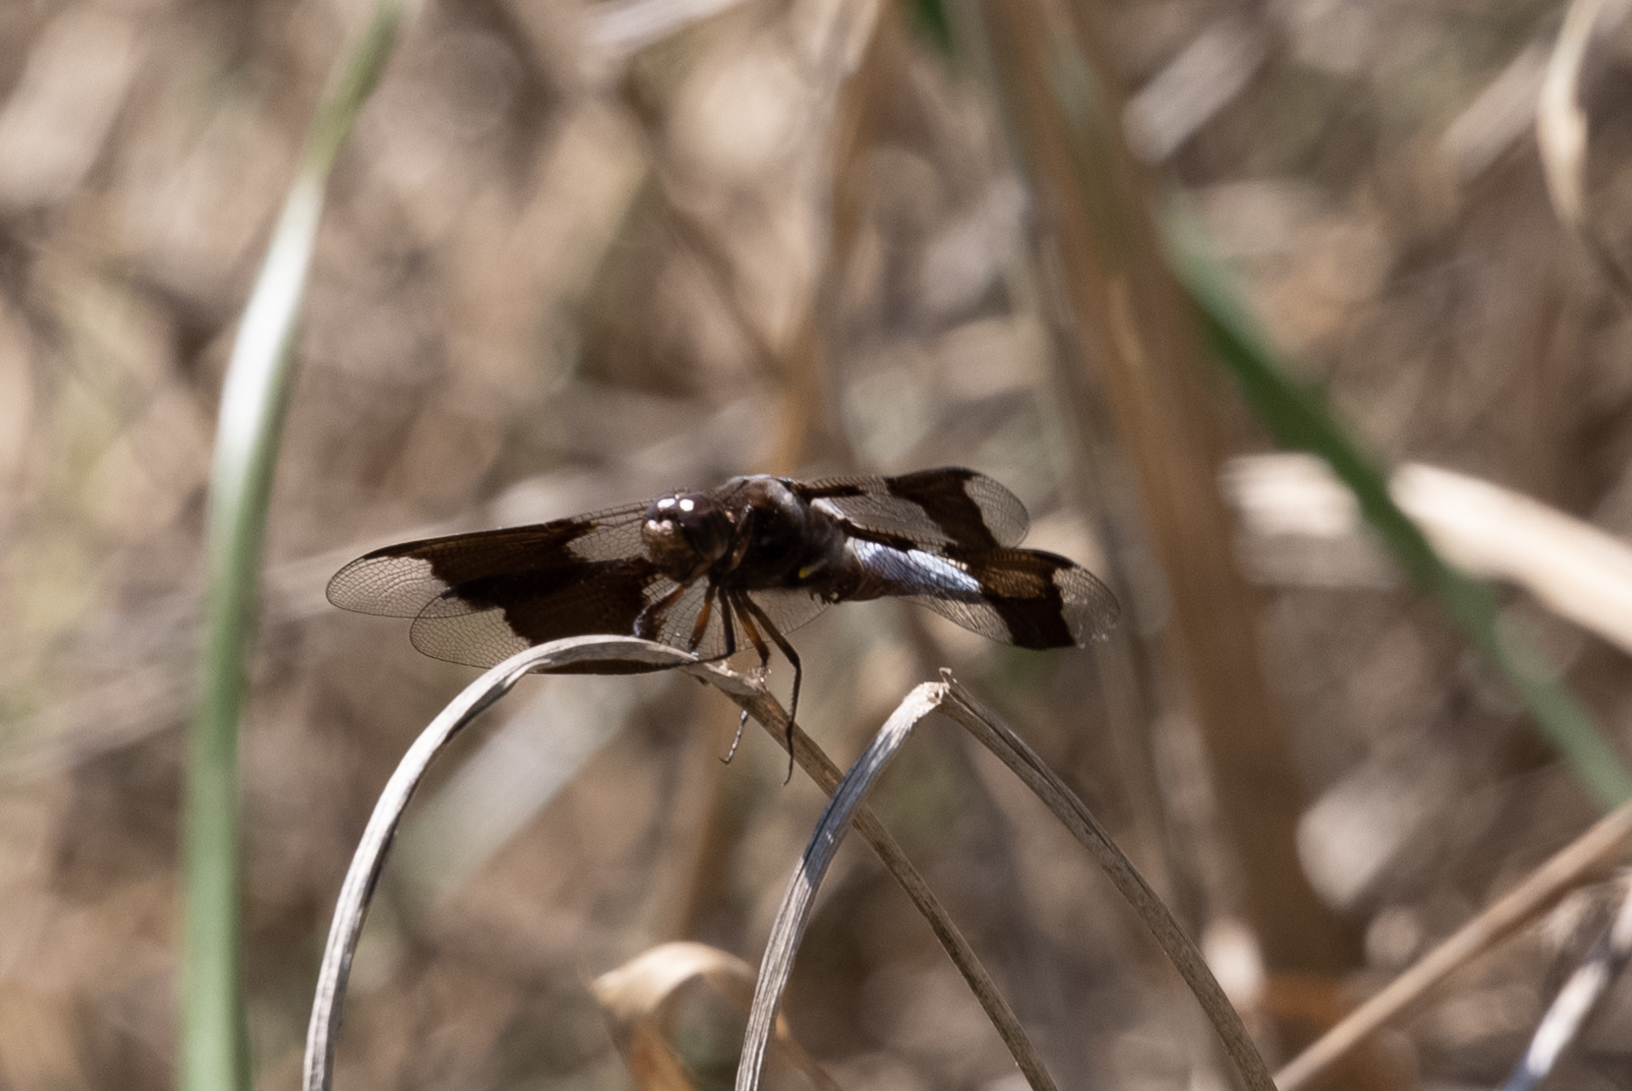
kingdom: Animalia
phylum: Arthropoda
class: Insecta
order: Odonata
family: Libellulidae
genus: Plathemis
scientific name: Plathemis lydia
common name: Common whitetail
